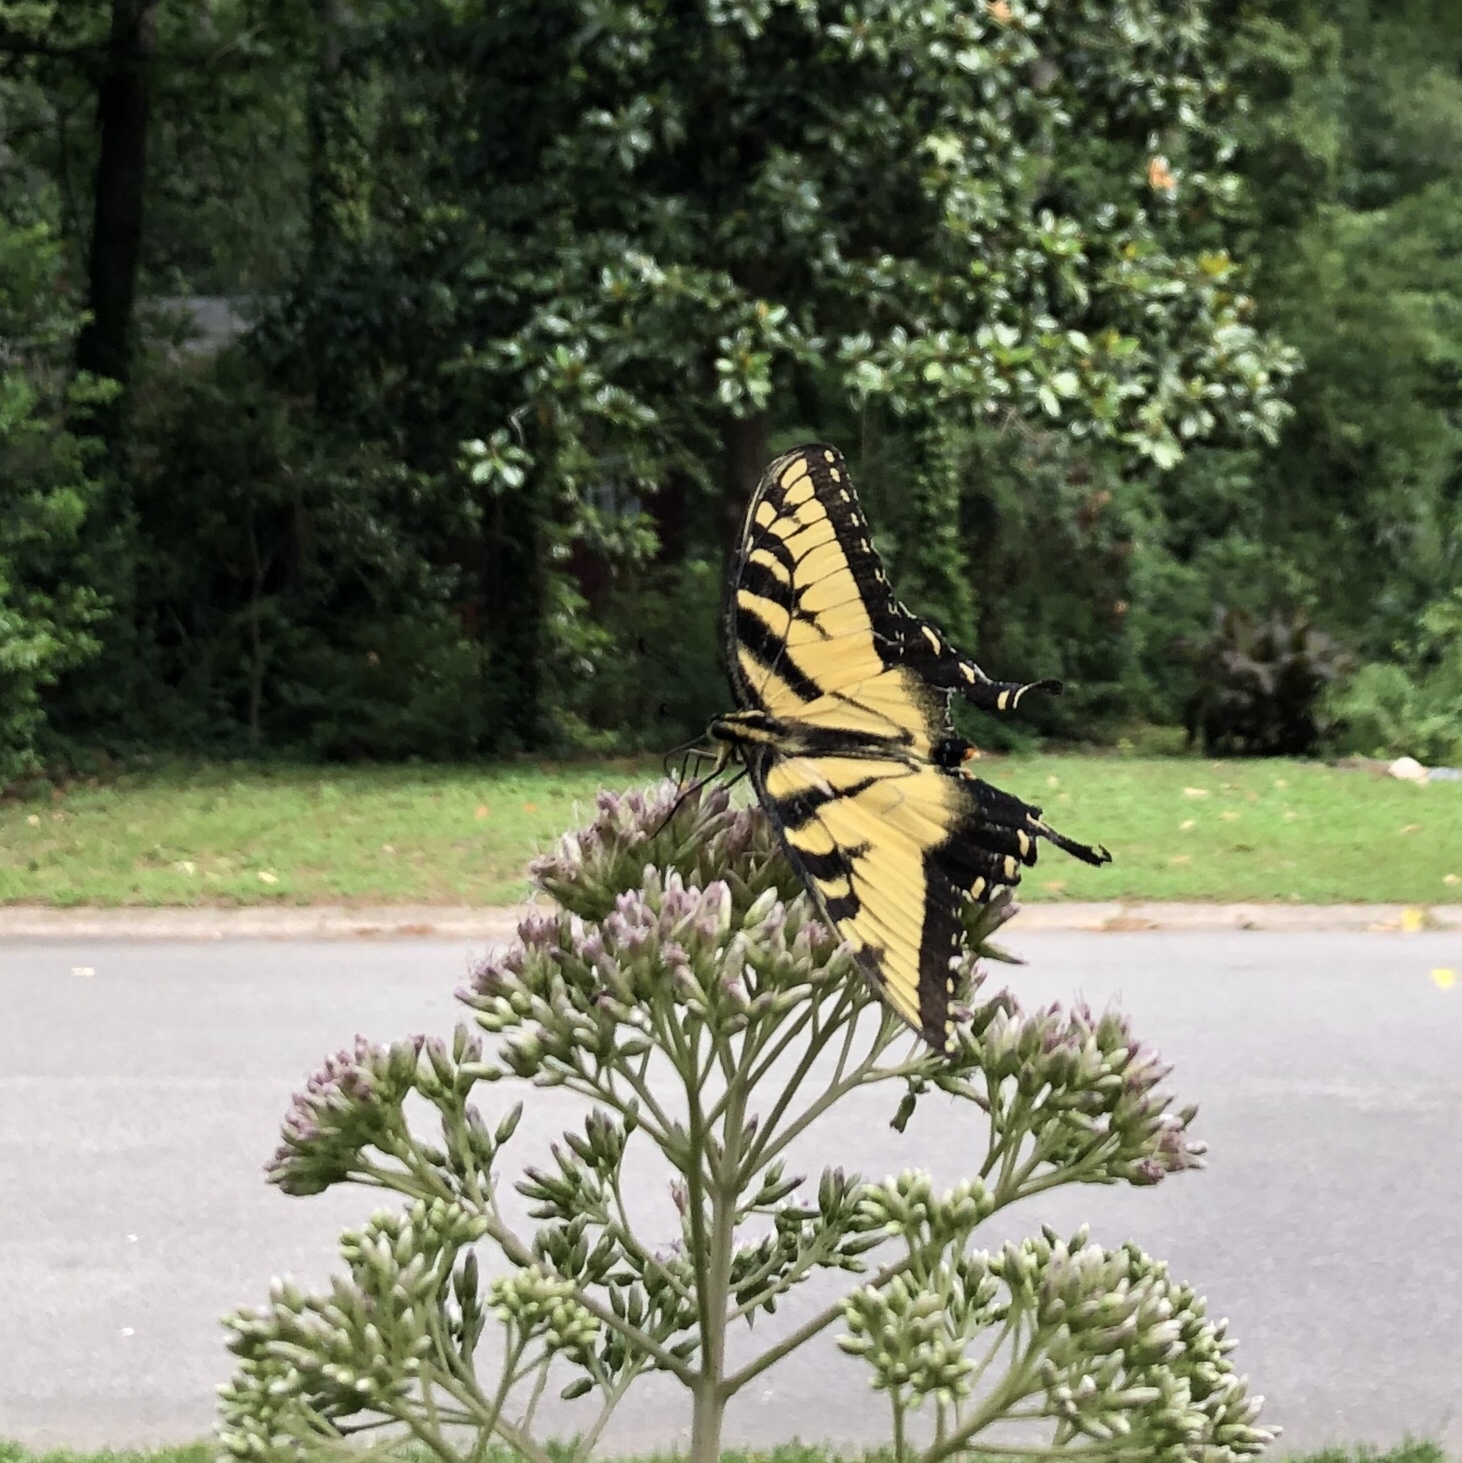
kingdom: Animalia
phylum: Arthropoda
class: Insecta
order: Lepidoptera
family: Papilionidae
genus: Papilio
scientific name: Papilio glaucus
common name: Tiger swallowtail
